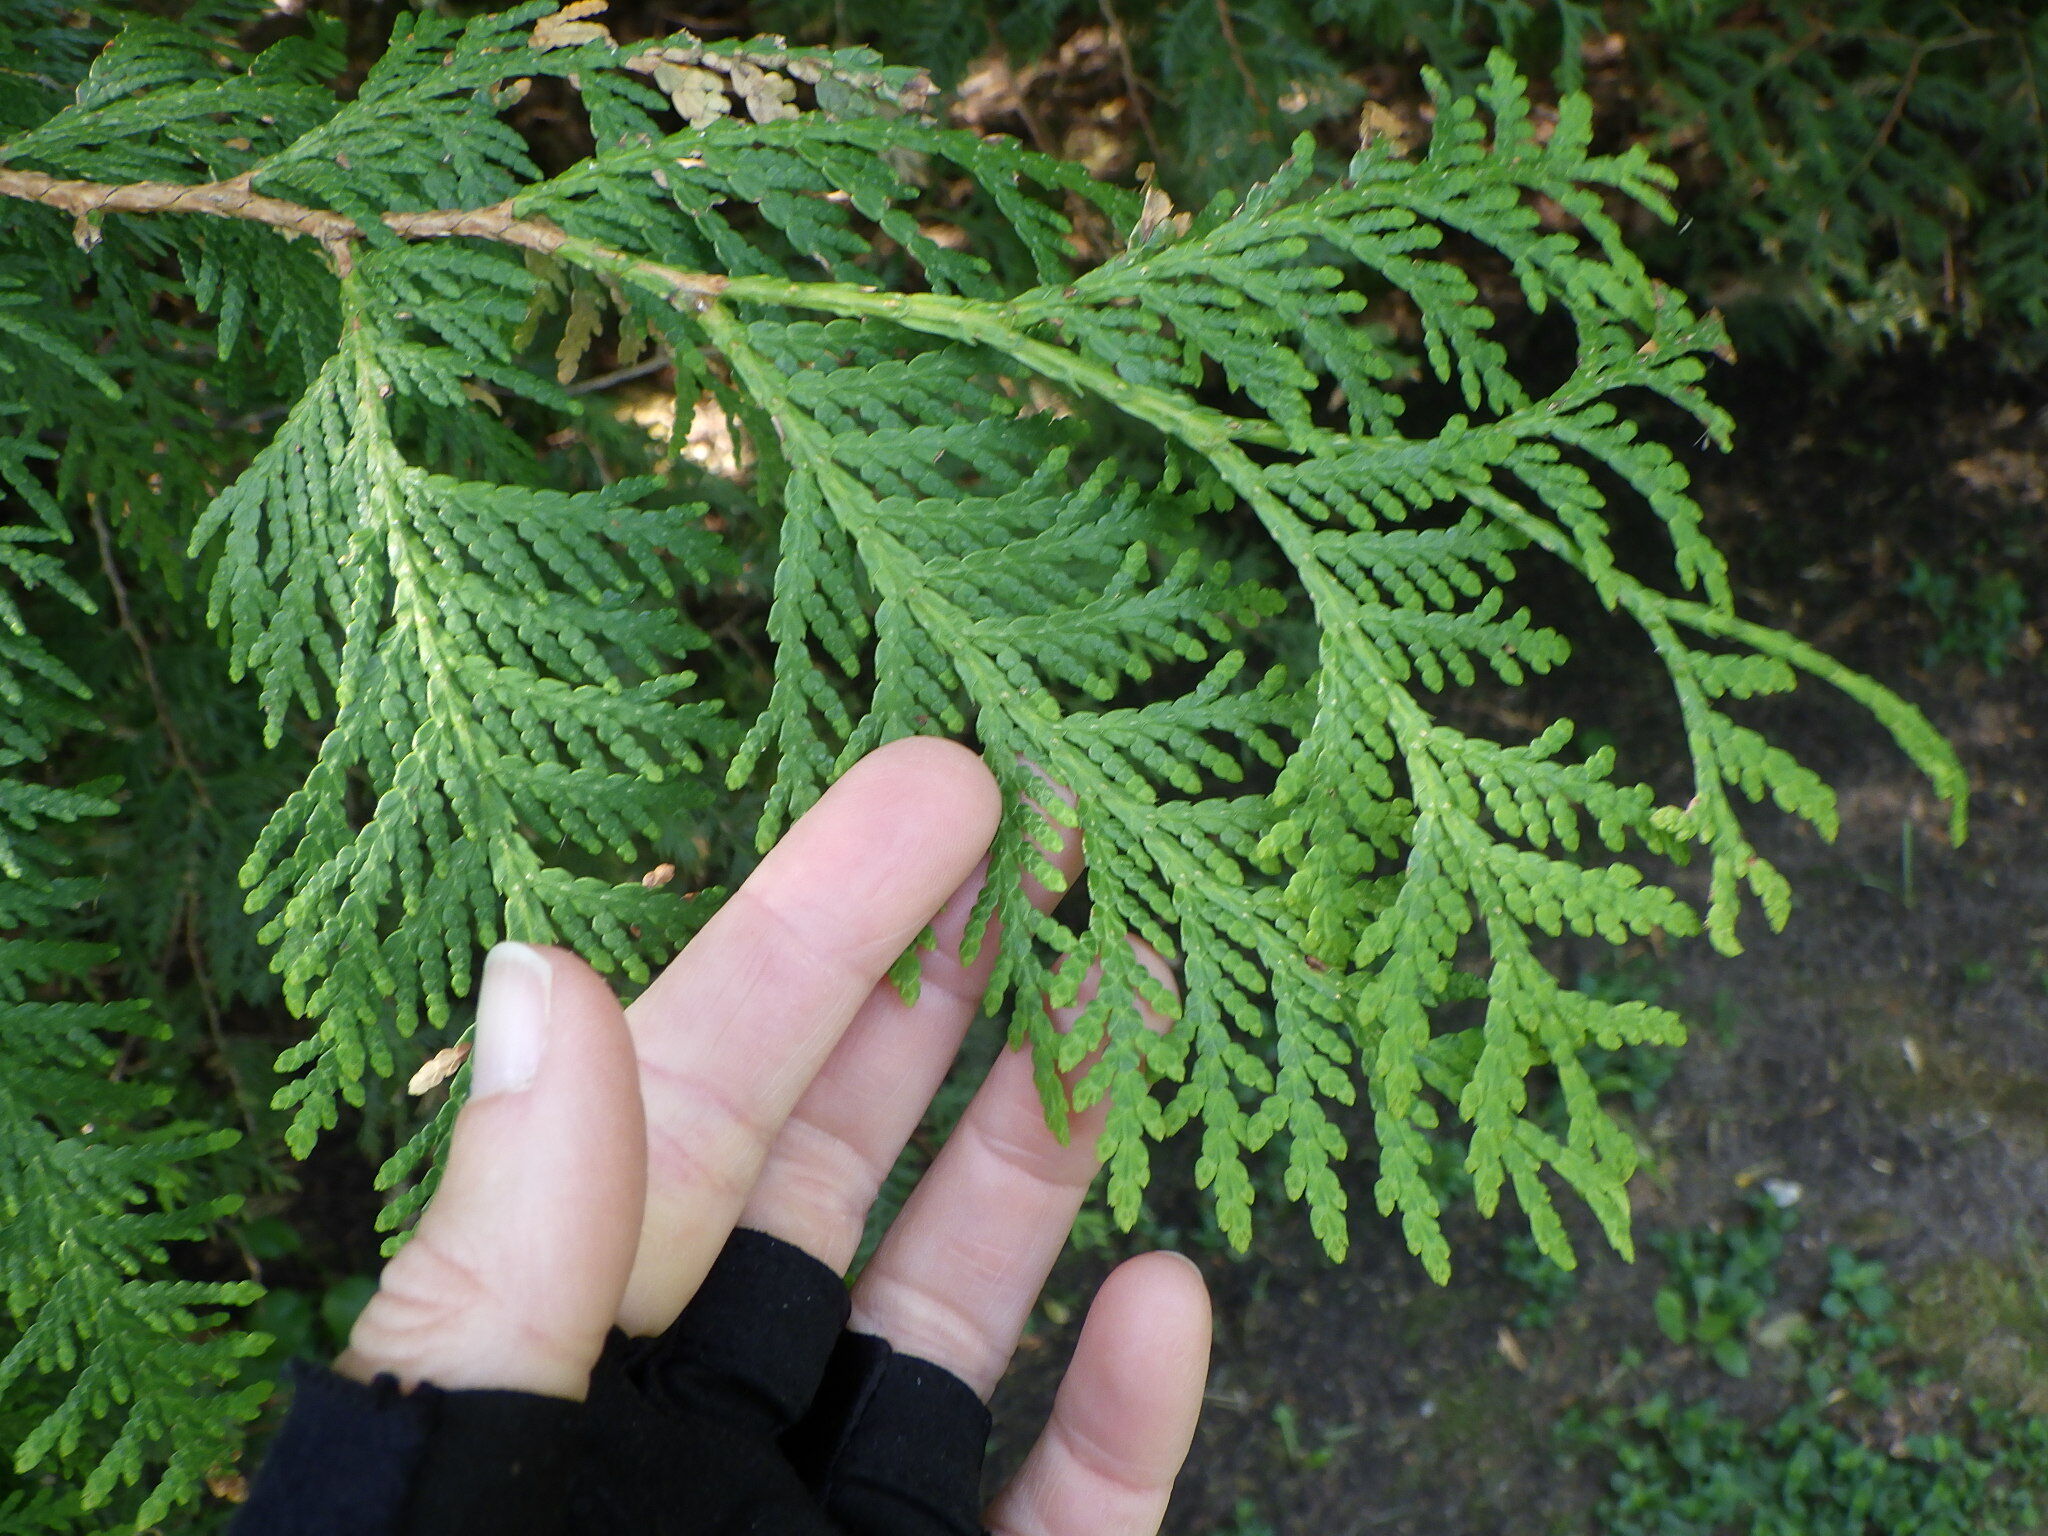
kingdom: Plantae
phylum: Tracheophyta
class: Pinopsida
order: Pinales
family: Cupressaceae
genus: Thuja
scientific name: Thuja occidentalis
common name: Northern white-cedar
